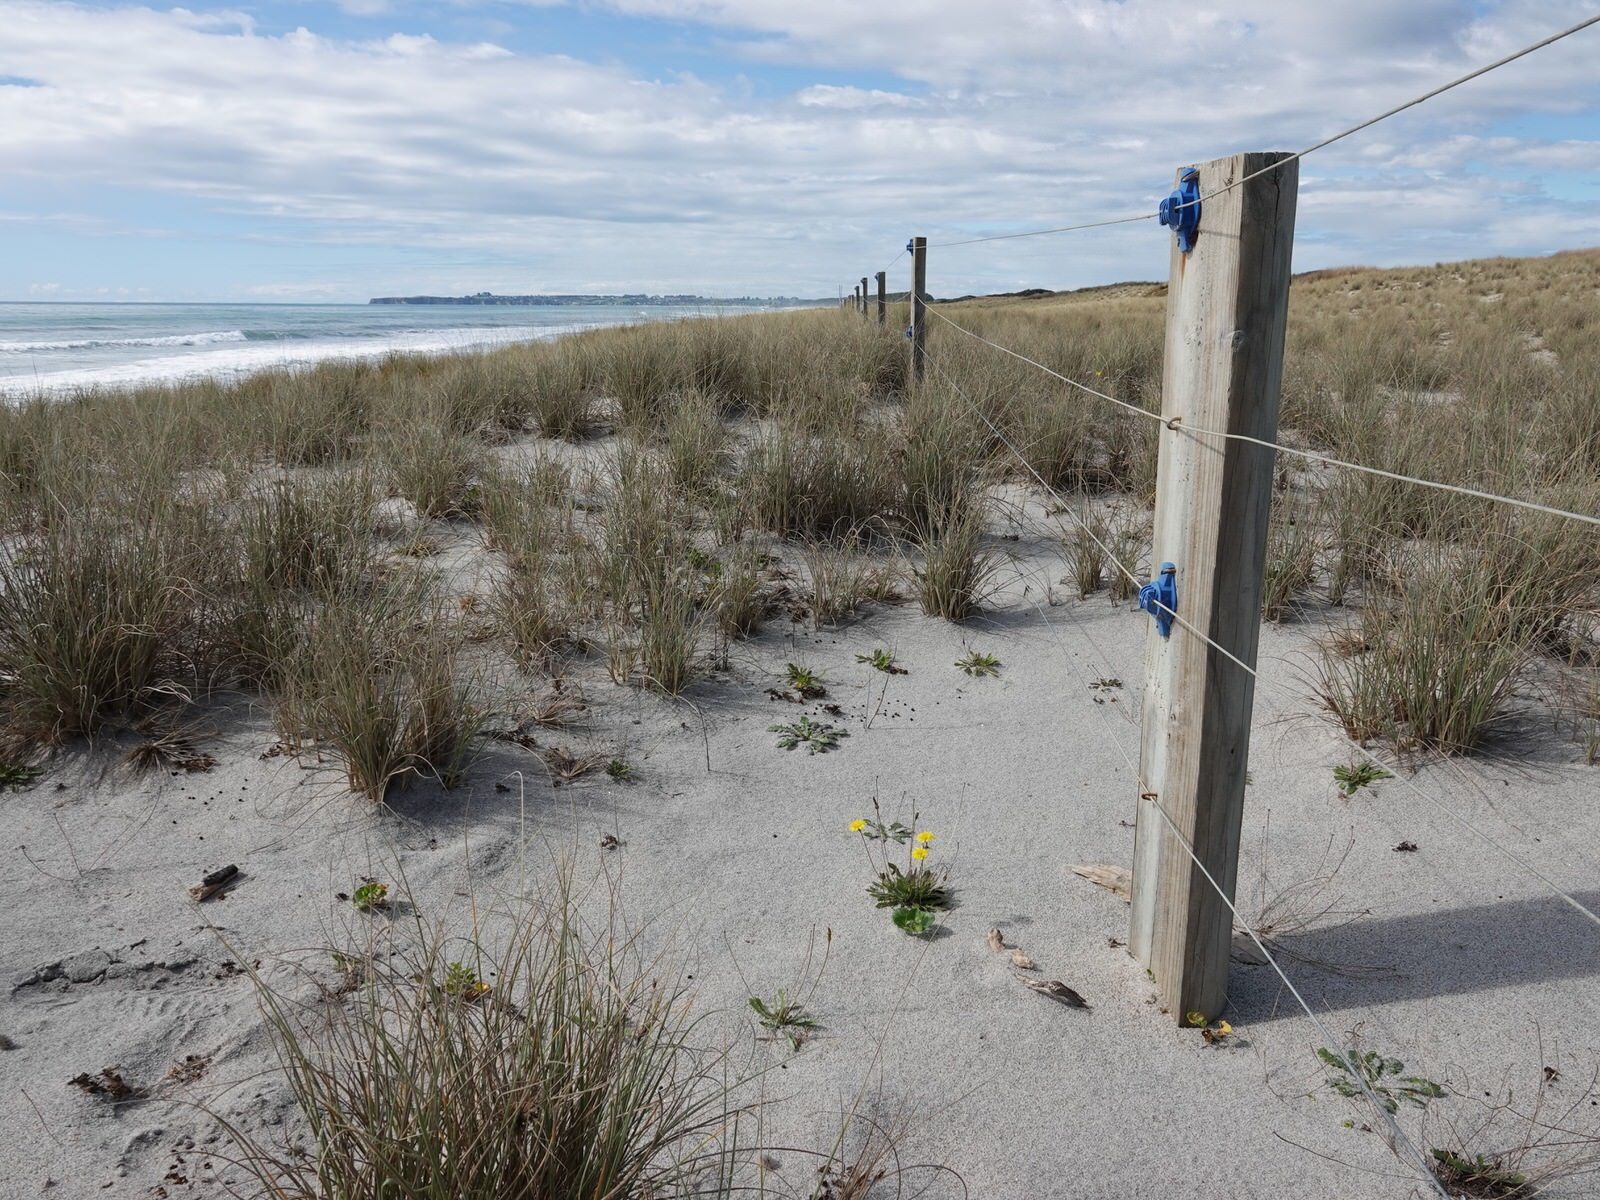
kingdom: Plantae
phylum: Tracheophyta
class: Magnoliopsida
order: Asterales
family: Asteraceae
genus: Thrincia
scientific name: Thrincia saxatilis
